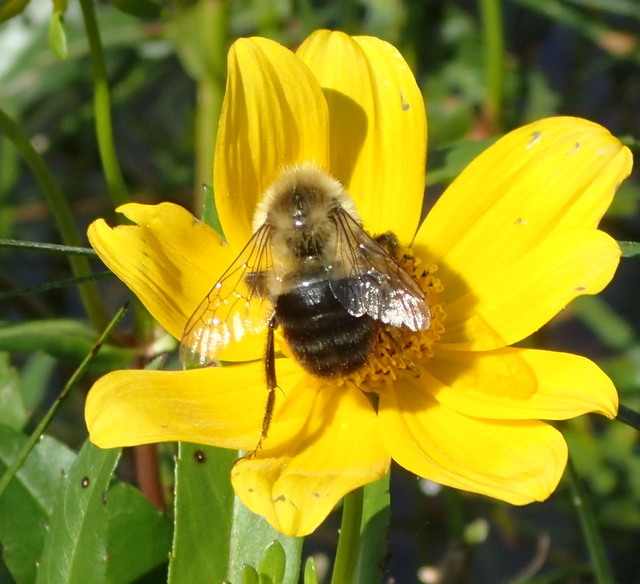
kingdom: Animalia
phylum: Arthropoda
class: Insecta
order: Hymenoptera
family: Apidae
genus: Bombus
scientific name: Bombus impatiens
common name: Common eastern bumble bee
